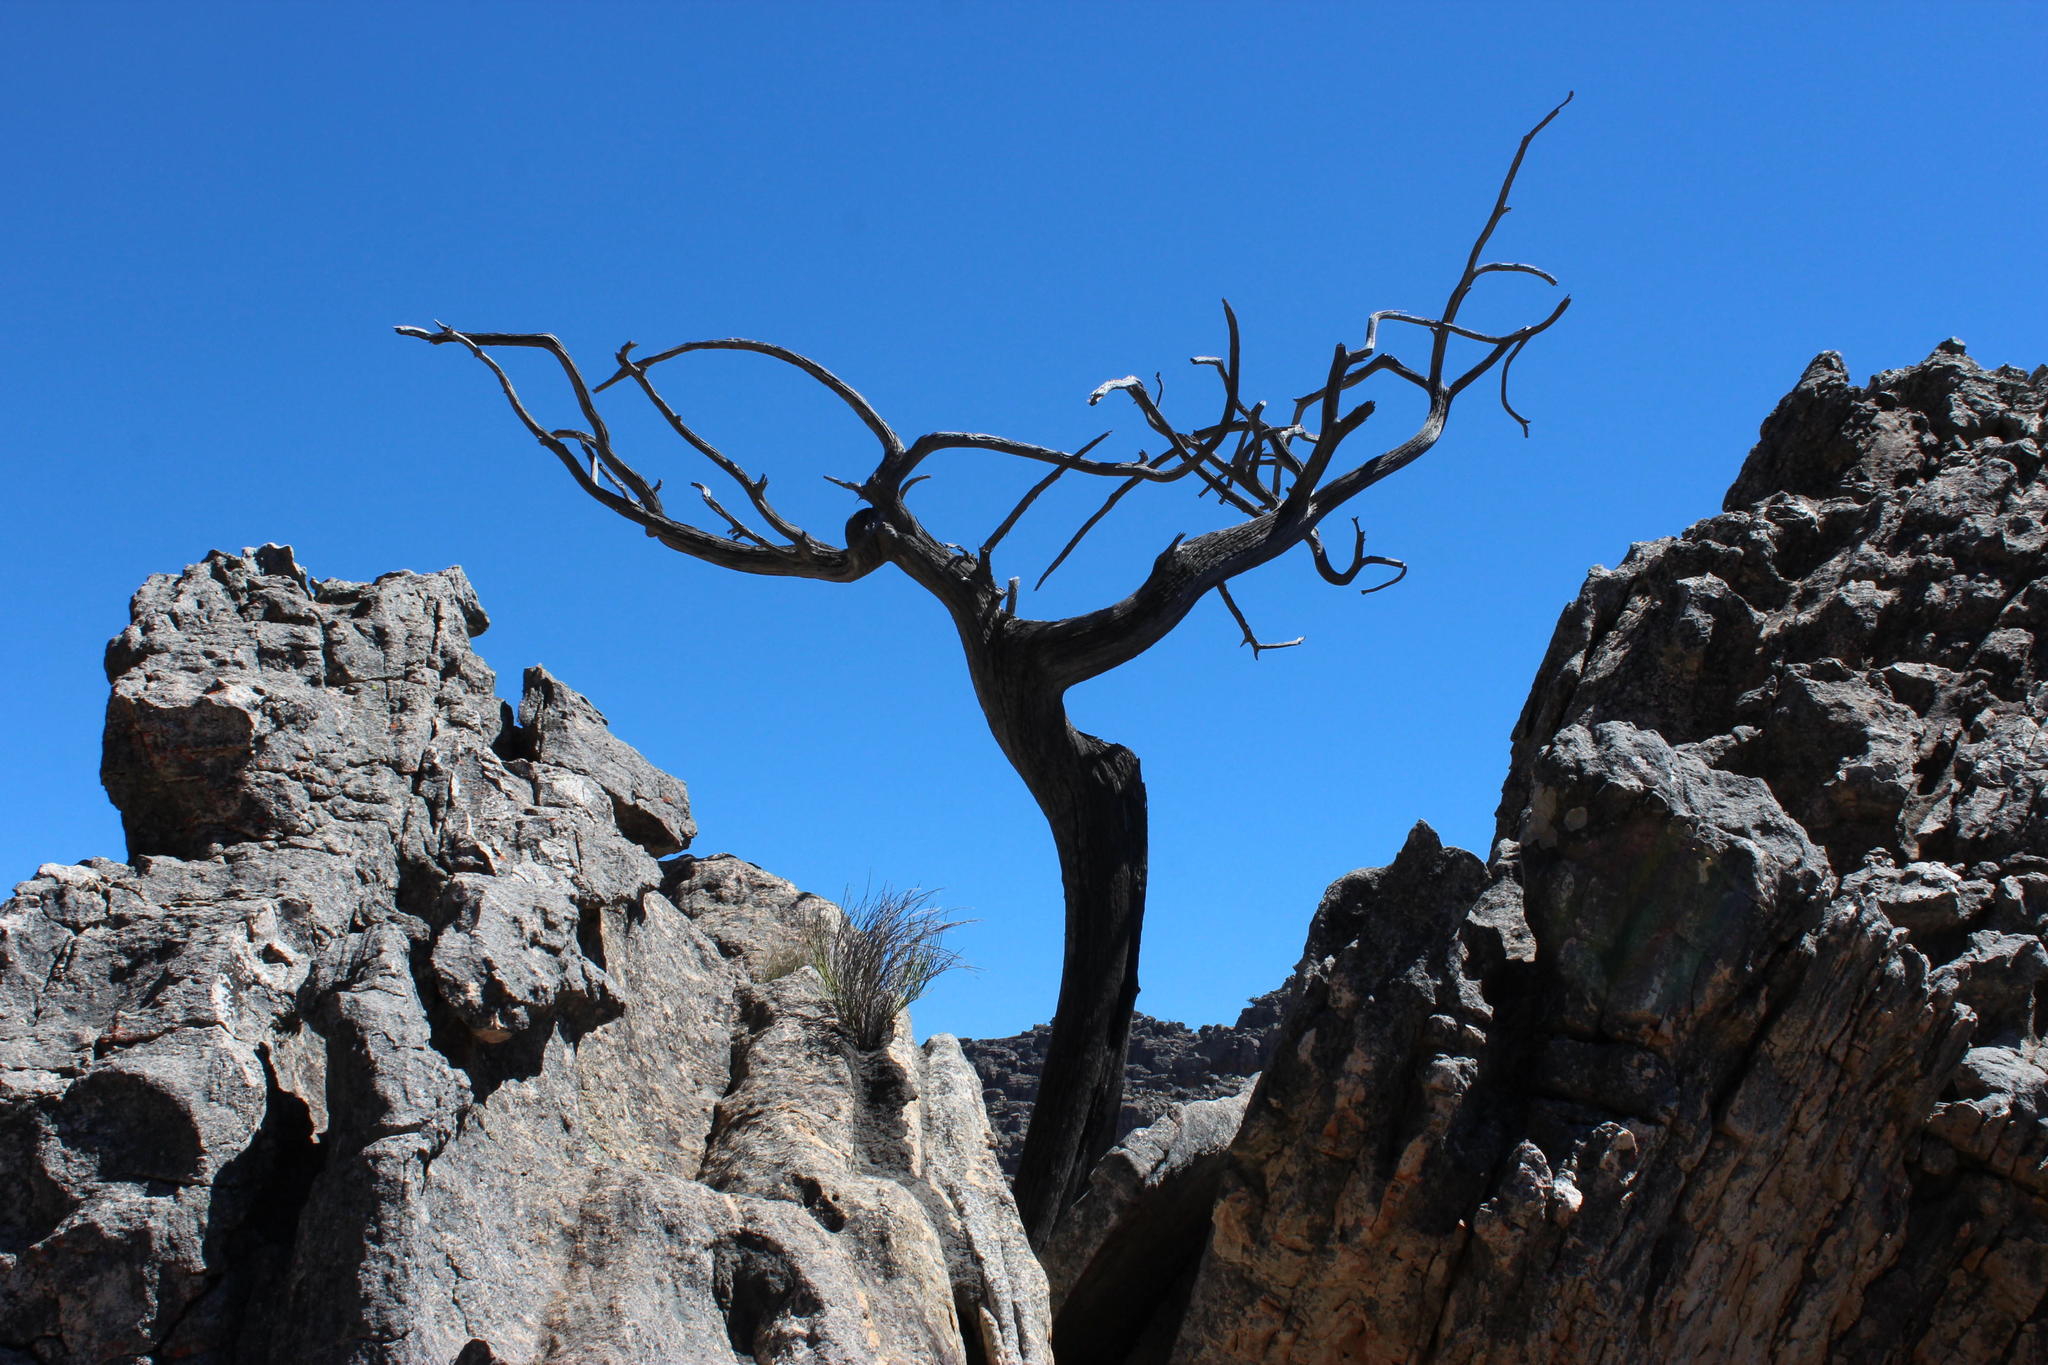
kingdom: Plantae
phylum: Tracheophyta
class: Pinopsida
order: Pinales
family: Cupressaceae
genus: Widdringtonia
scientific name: Widdringtonia nodiflora
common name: Cape cypress
